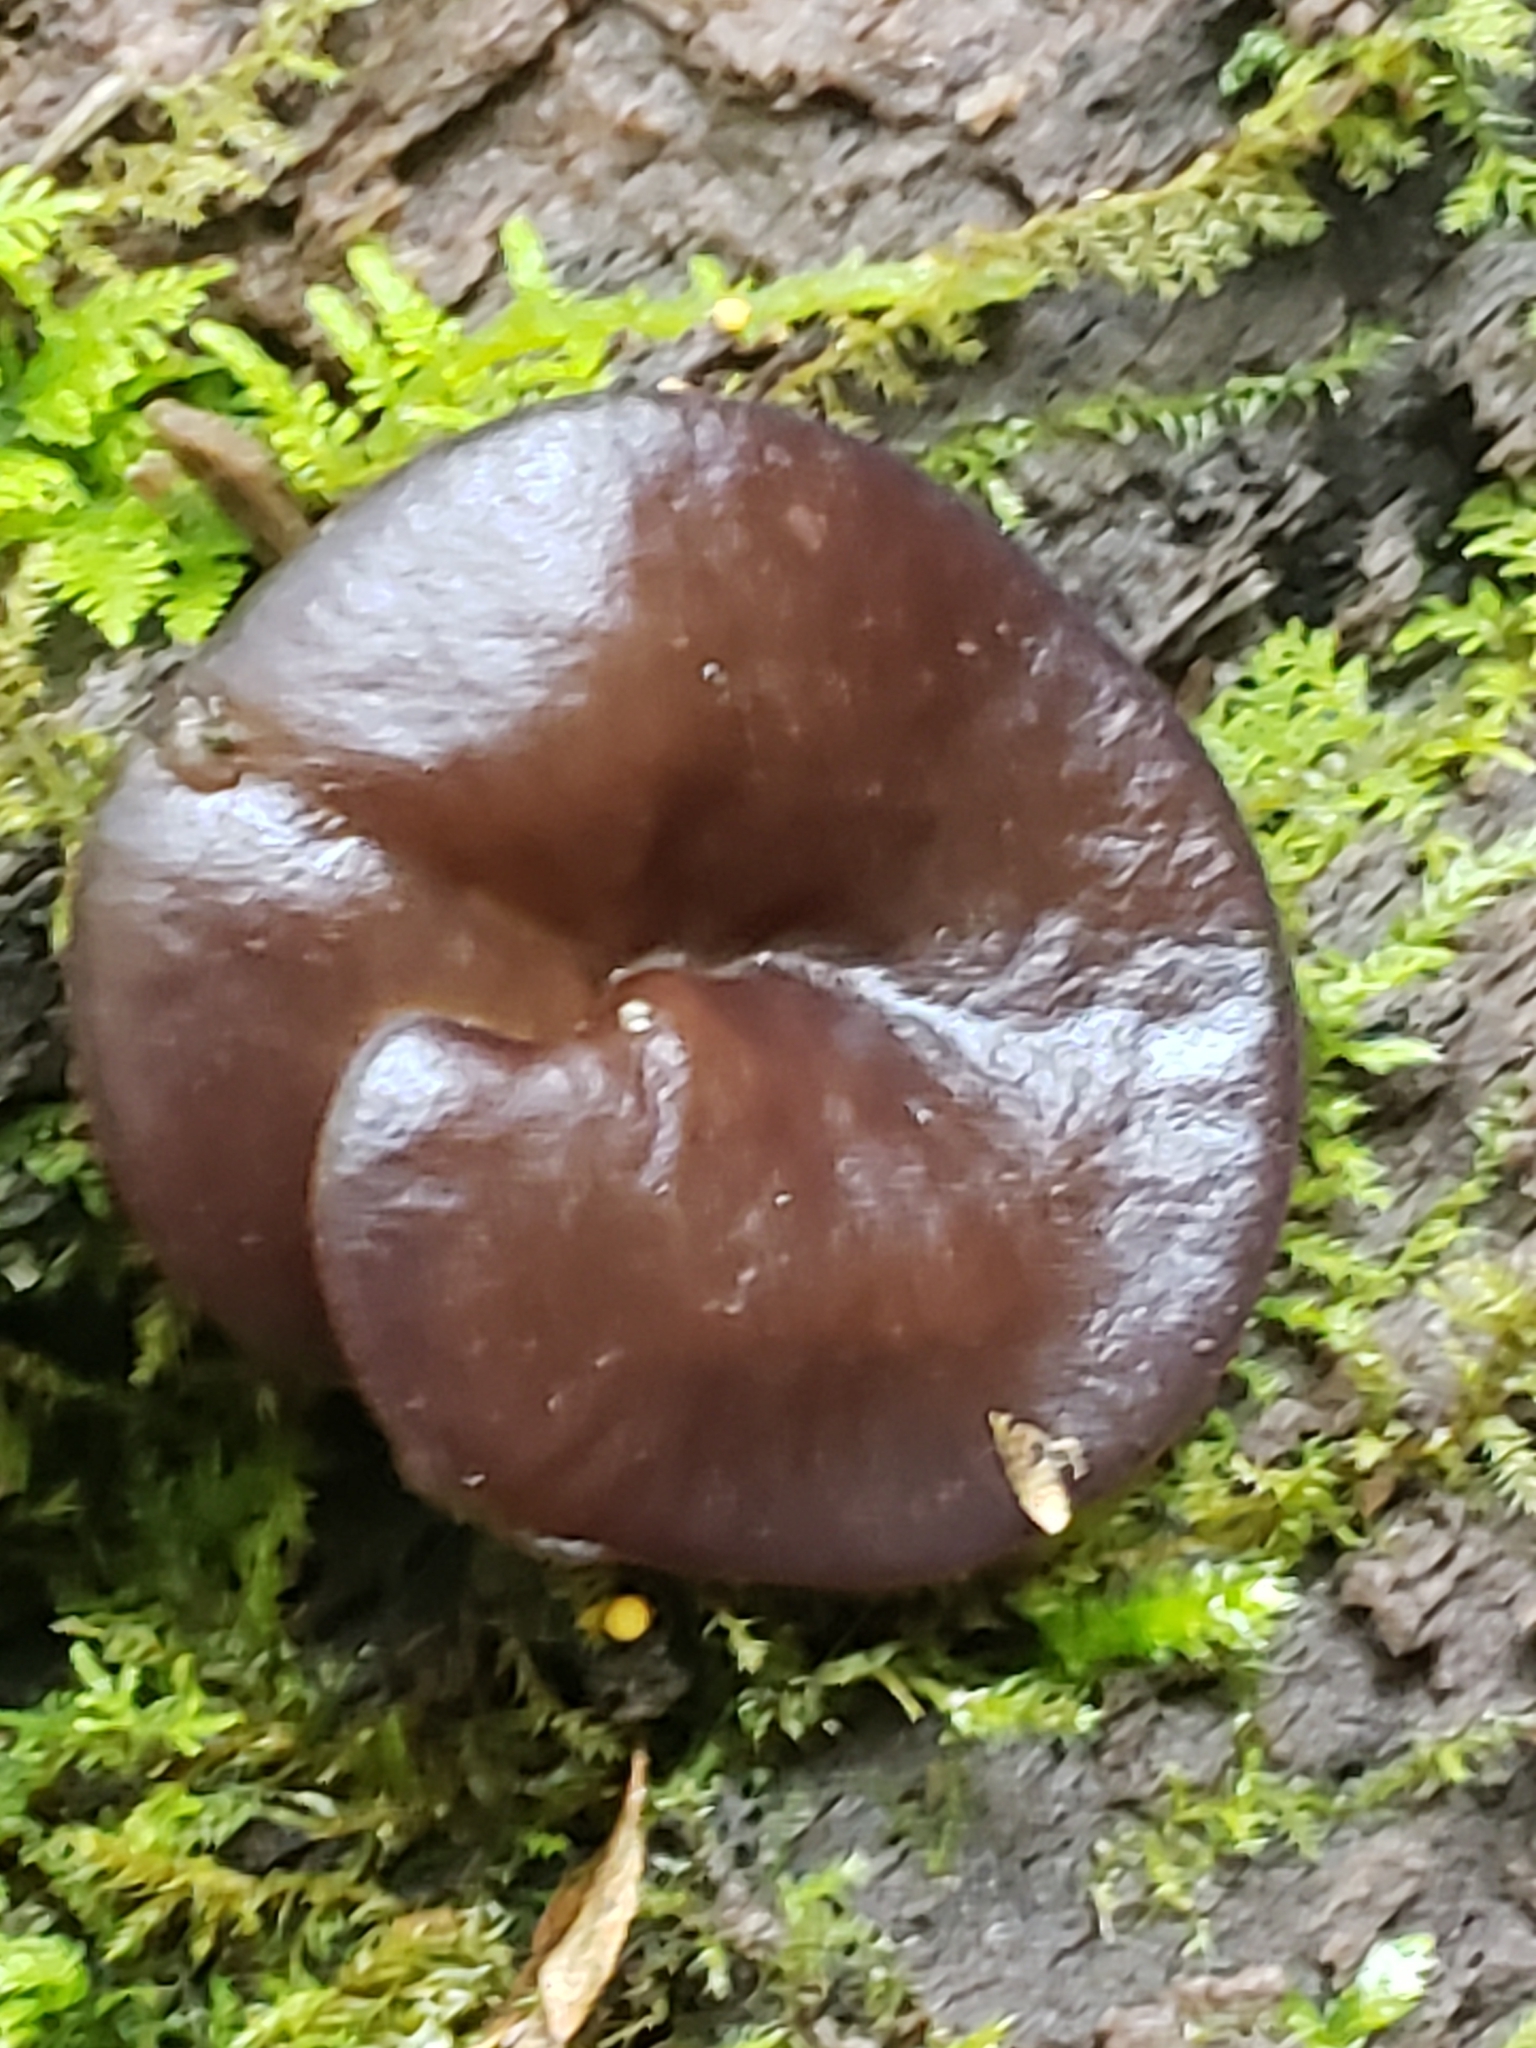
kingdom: Fungi
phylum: Ascomycota
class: Pezizomycetes
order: Pezizales
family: Pezizaceae
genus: Pachyella
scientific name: Pachyella clypeata
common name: Copper penny fungus
